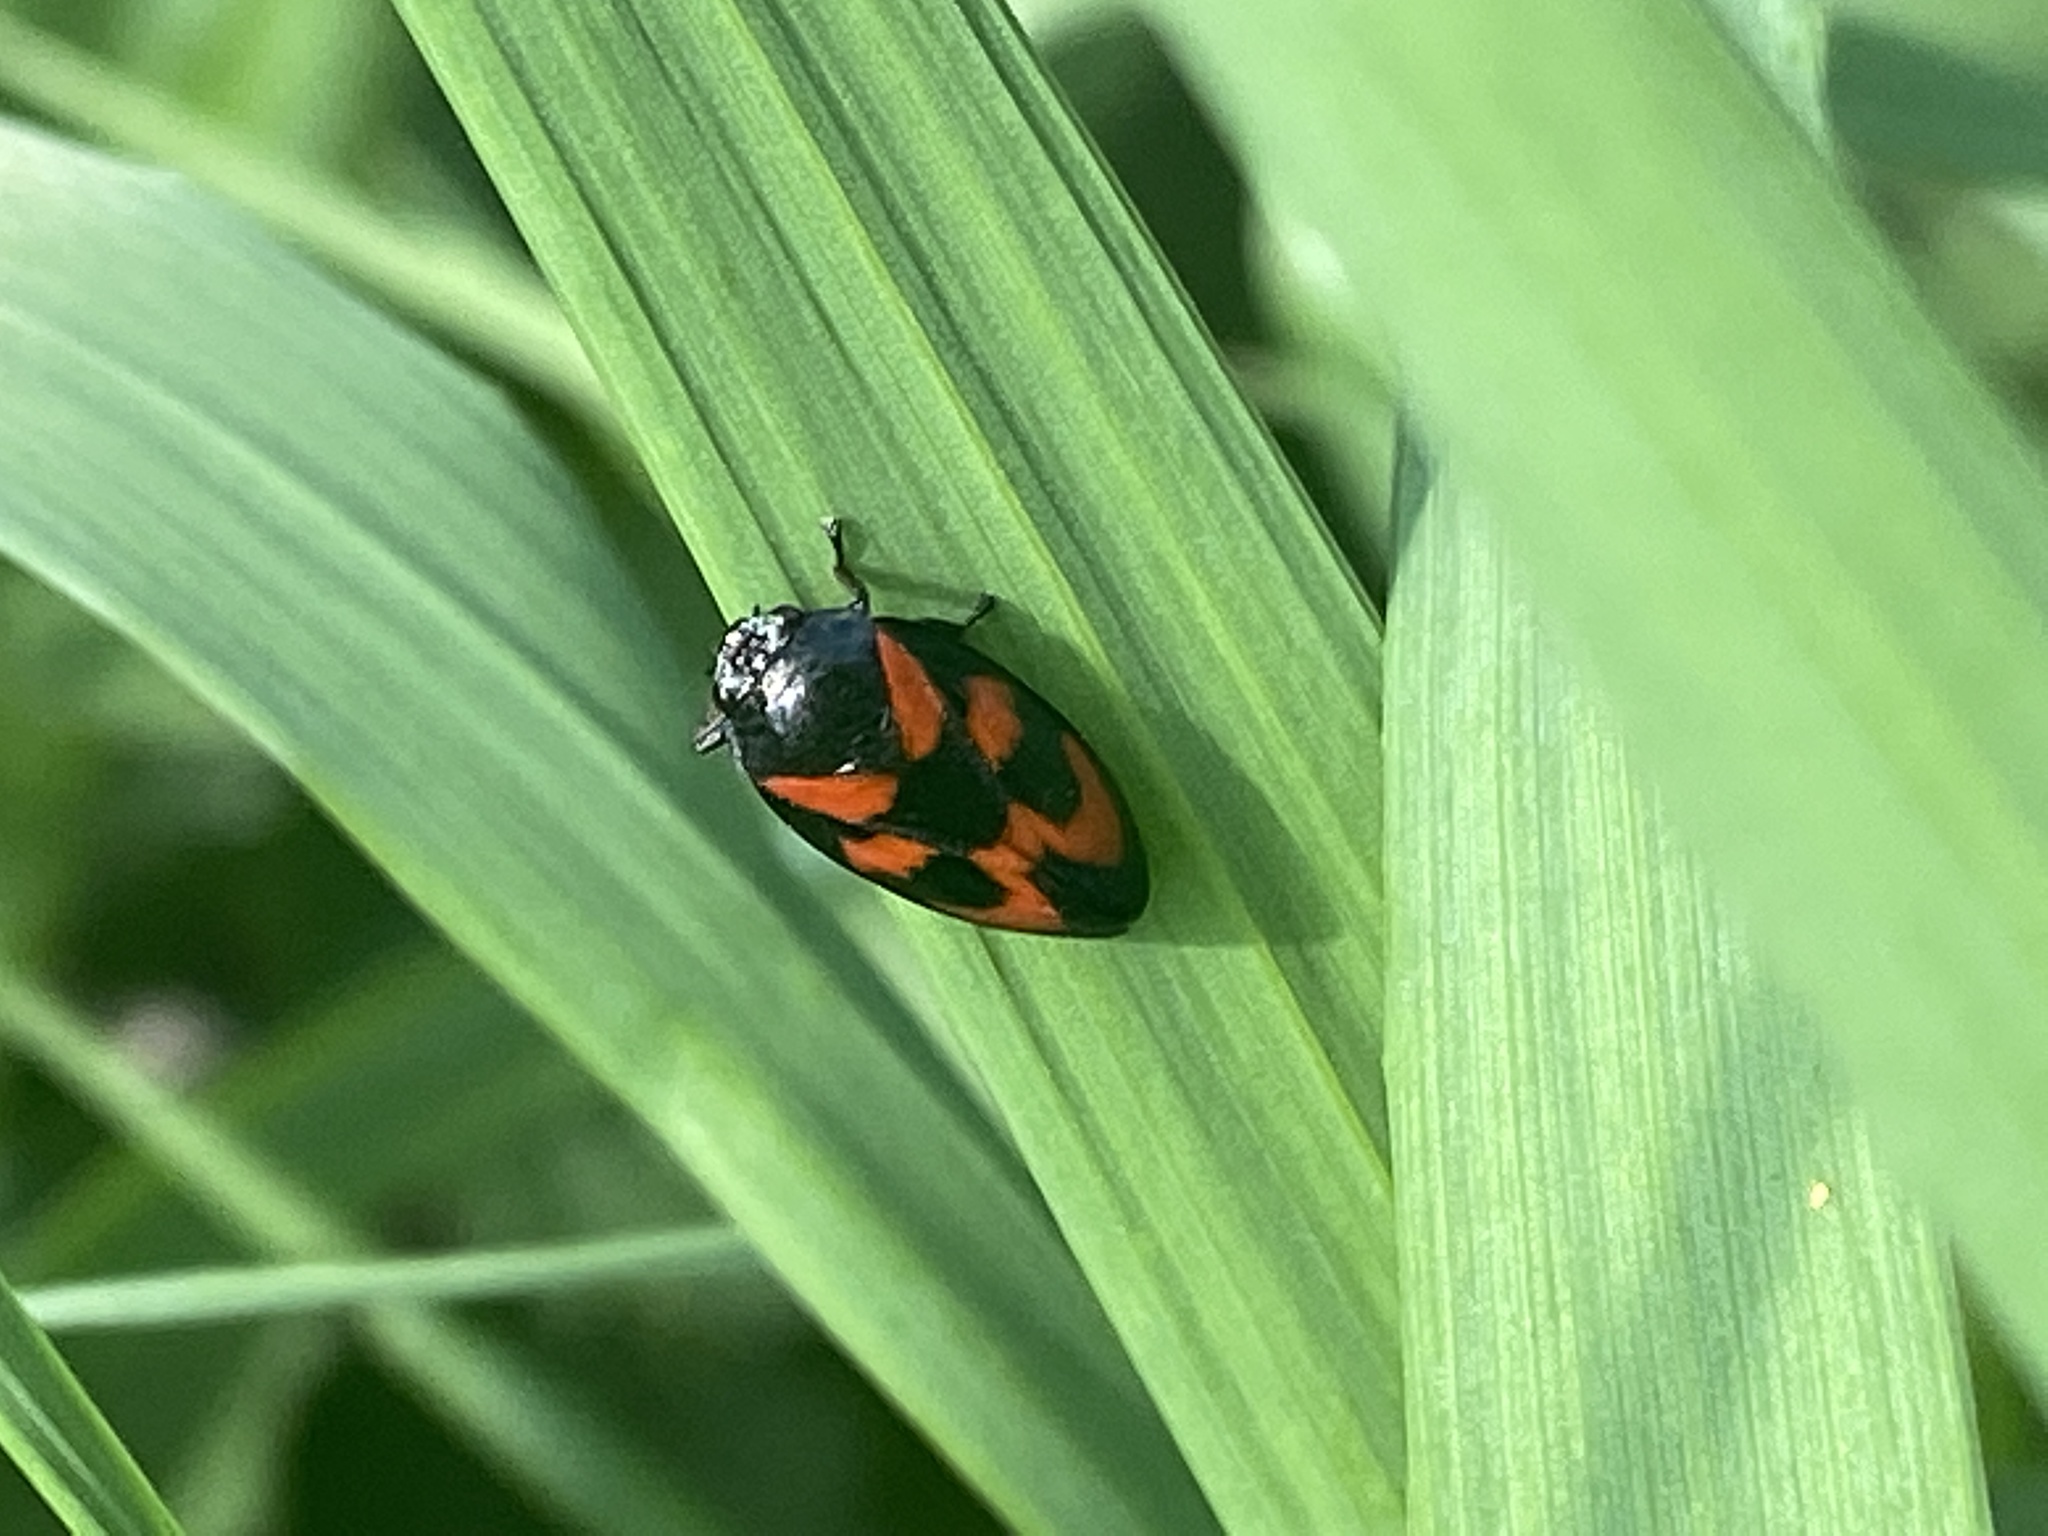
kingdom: Animalia
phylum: Arthropoda
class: Insecta
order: Hemiptera
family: Cercopidae
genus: Cercopis
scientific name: Cercopis vulnerata
